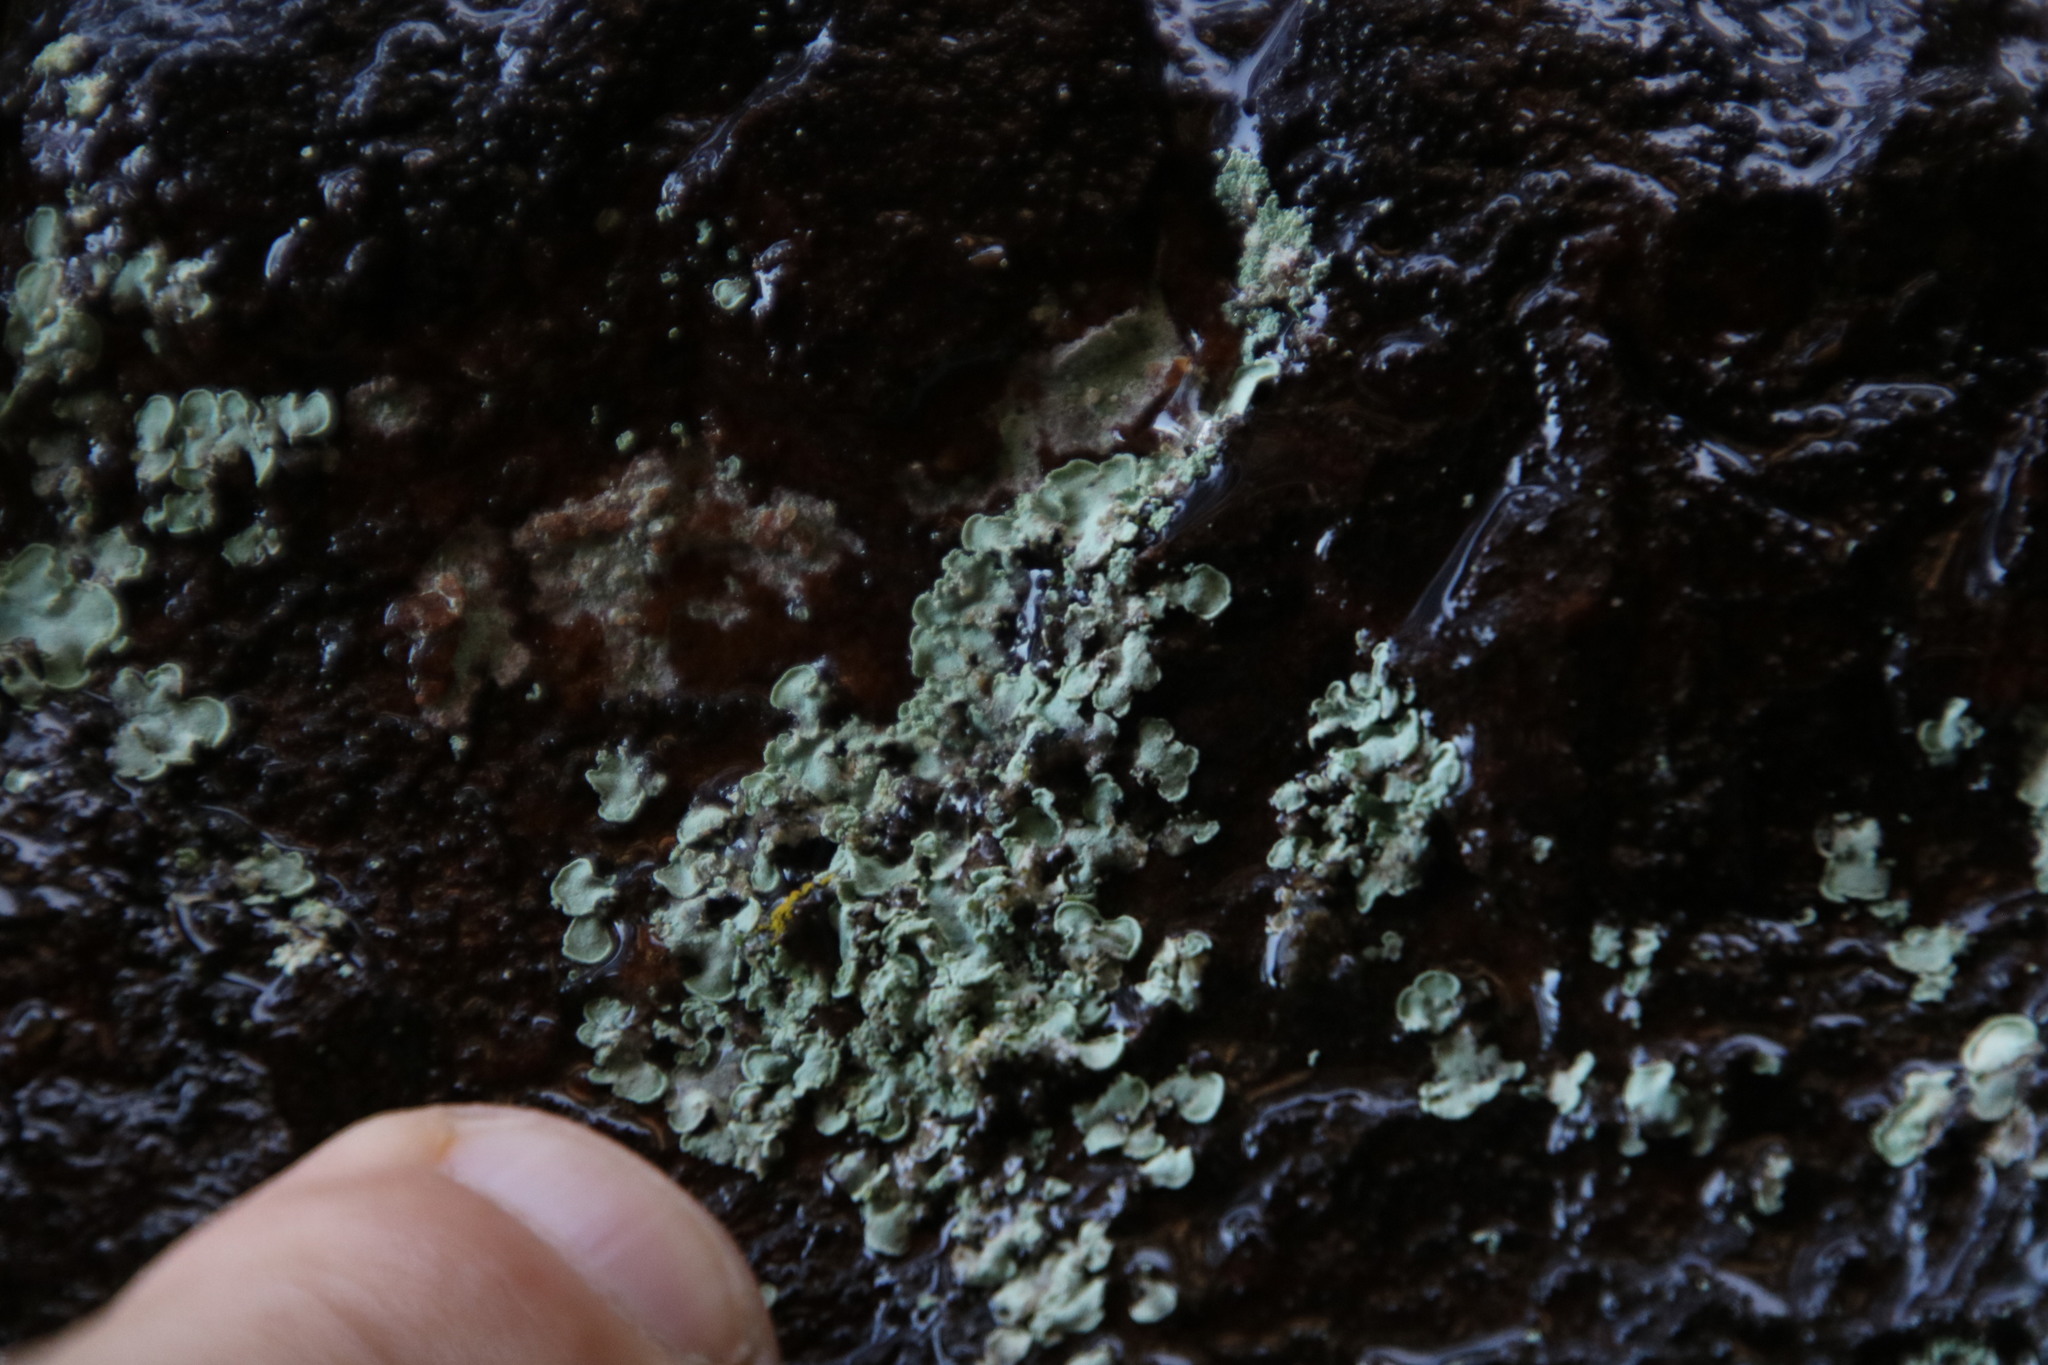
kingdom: Fungi
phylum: Ascomycota
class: Eurotiomycetes
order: Verrucariales
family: Verrucariaceae
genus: Normandina
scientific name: Normandina pulchella
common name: Elf ears lichen
